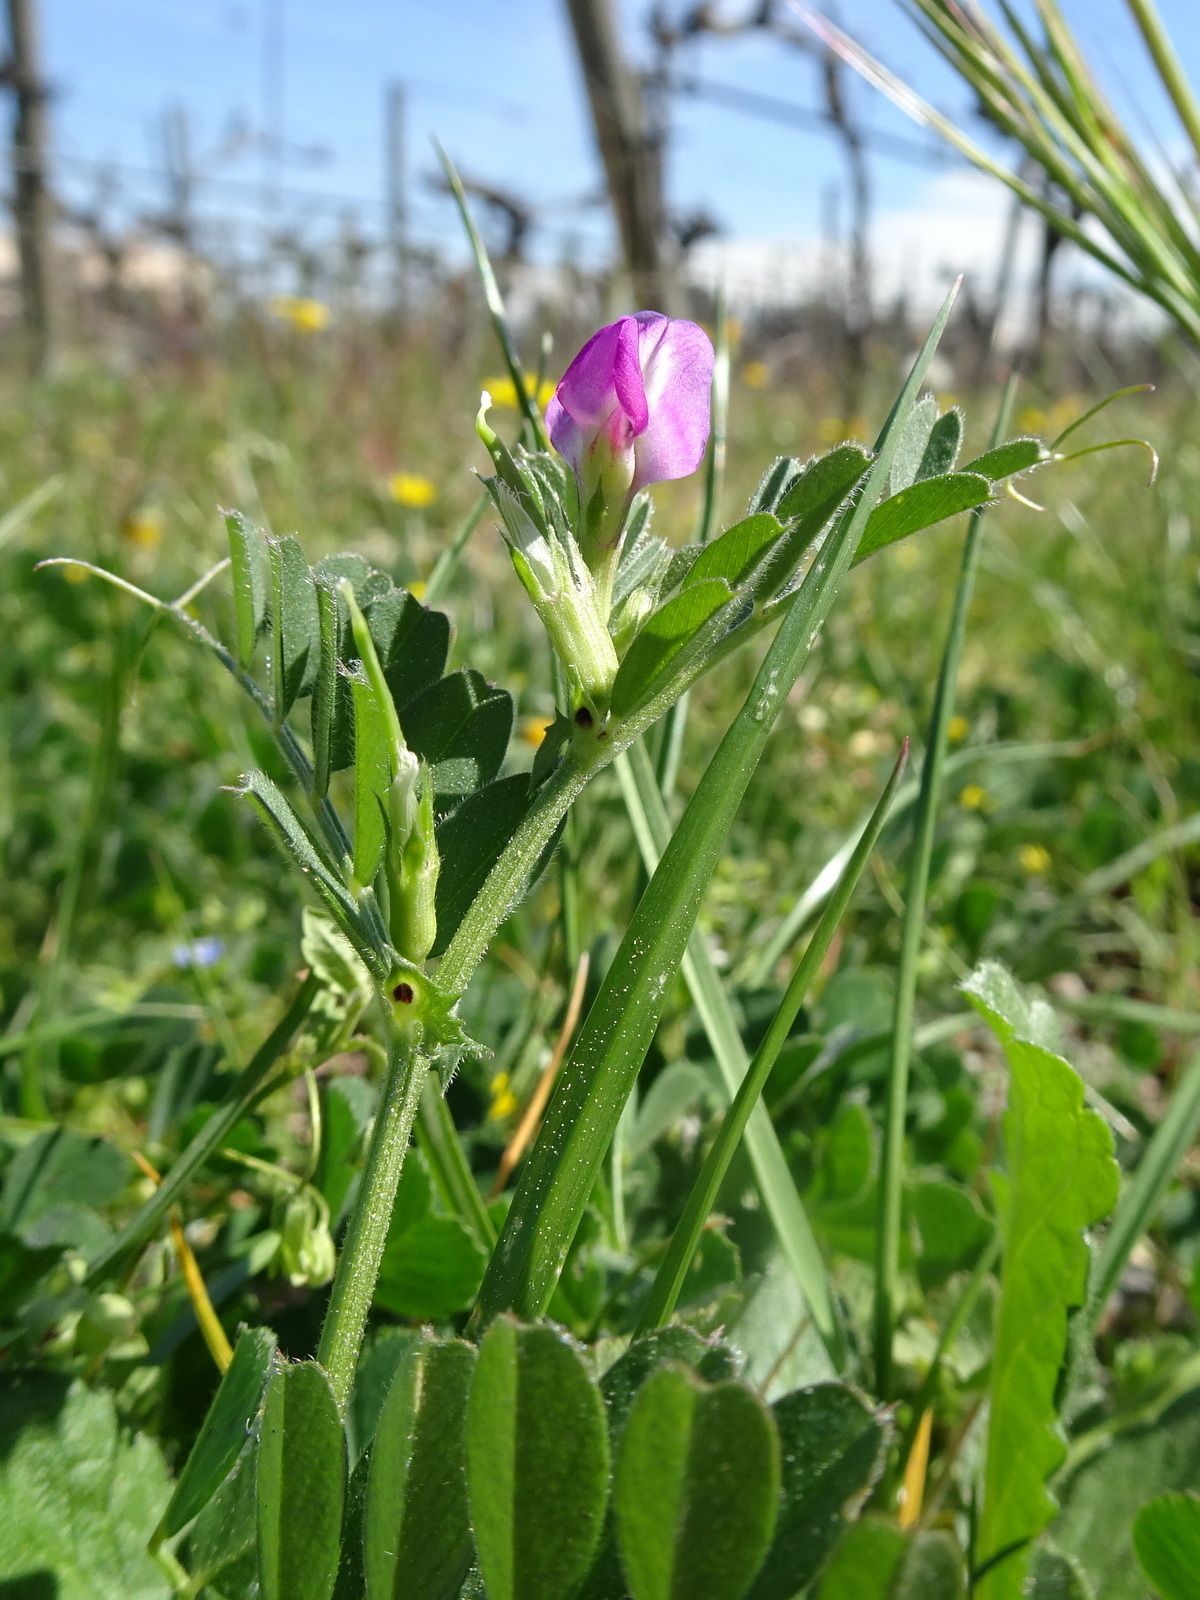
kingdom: Plantae
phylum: Tracheophyta
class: Magnoliopsida
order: Fabales
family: Fabaceae
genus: Vicia
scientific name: Vicia sativa
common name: Garden vetch
